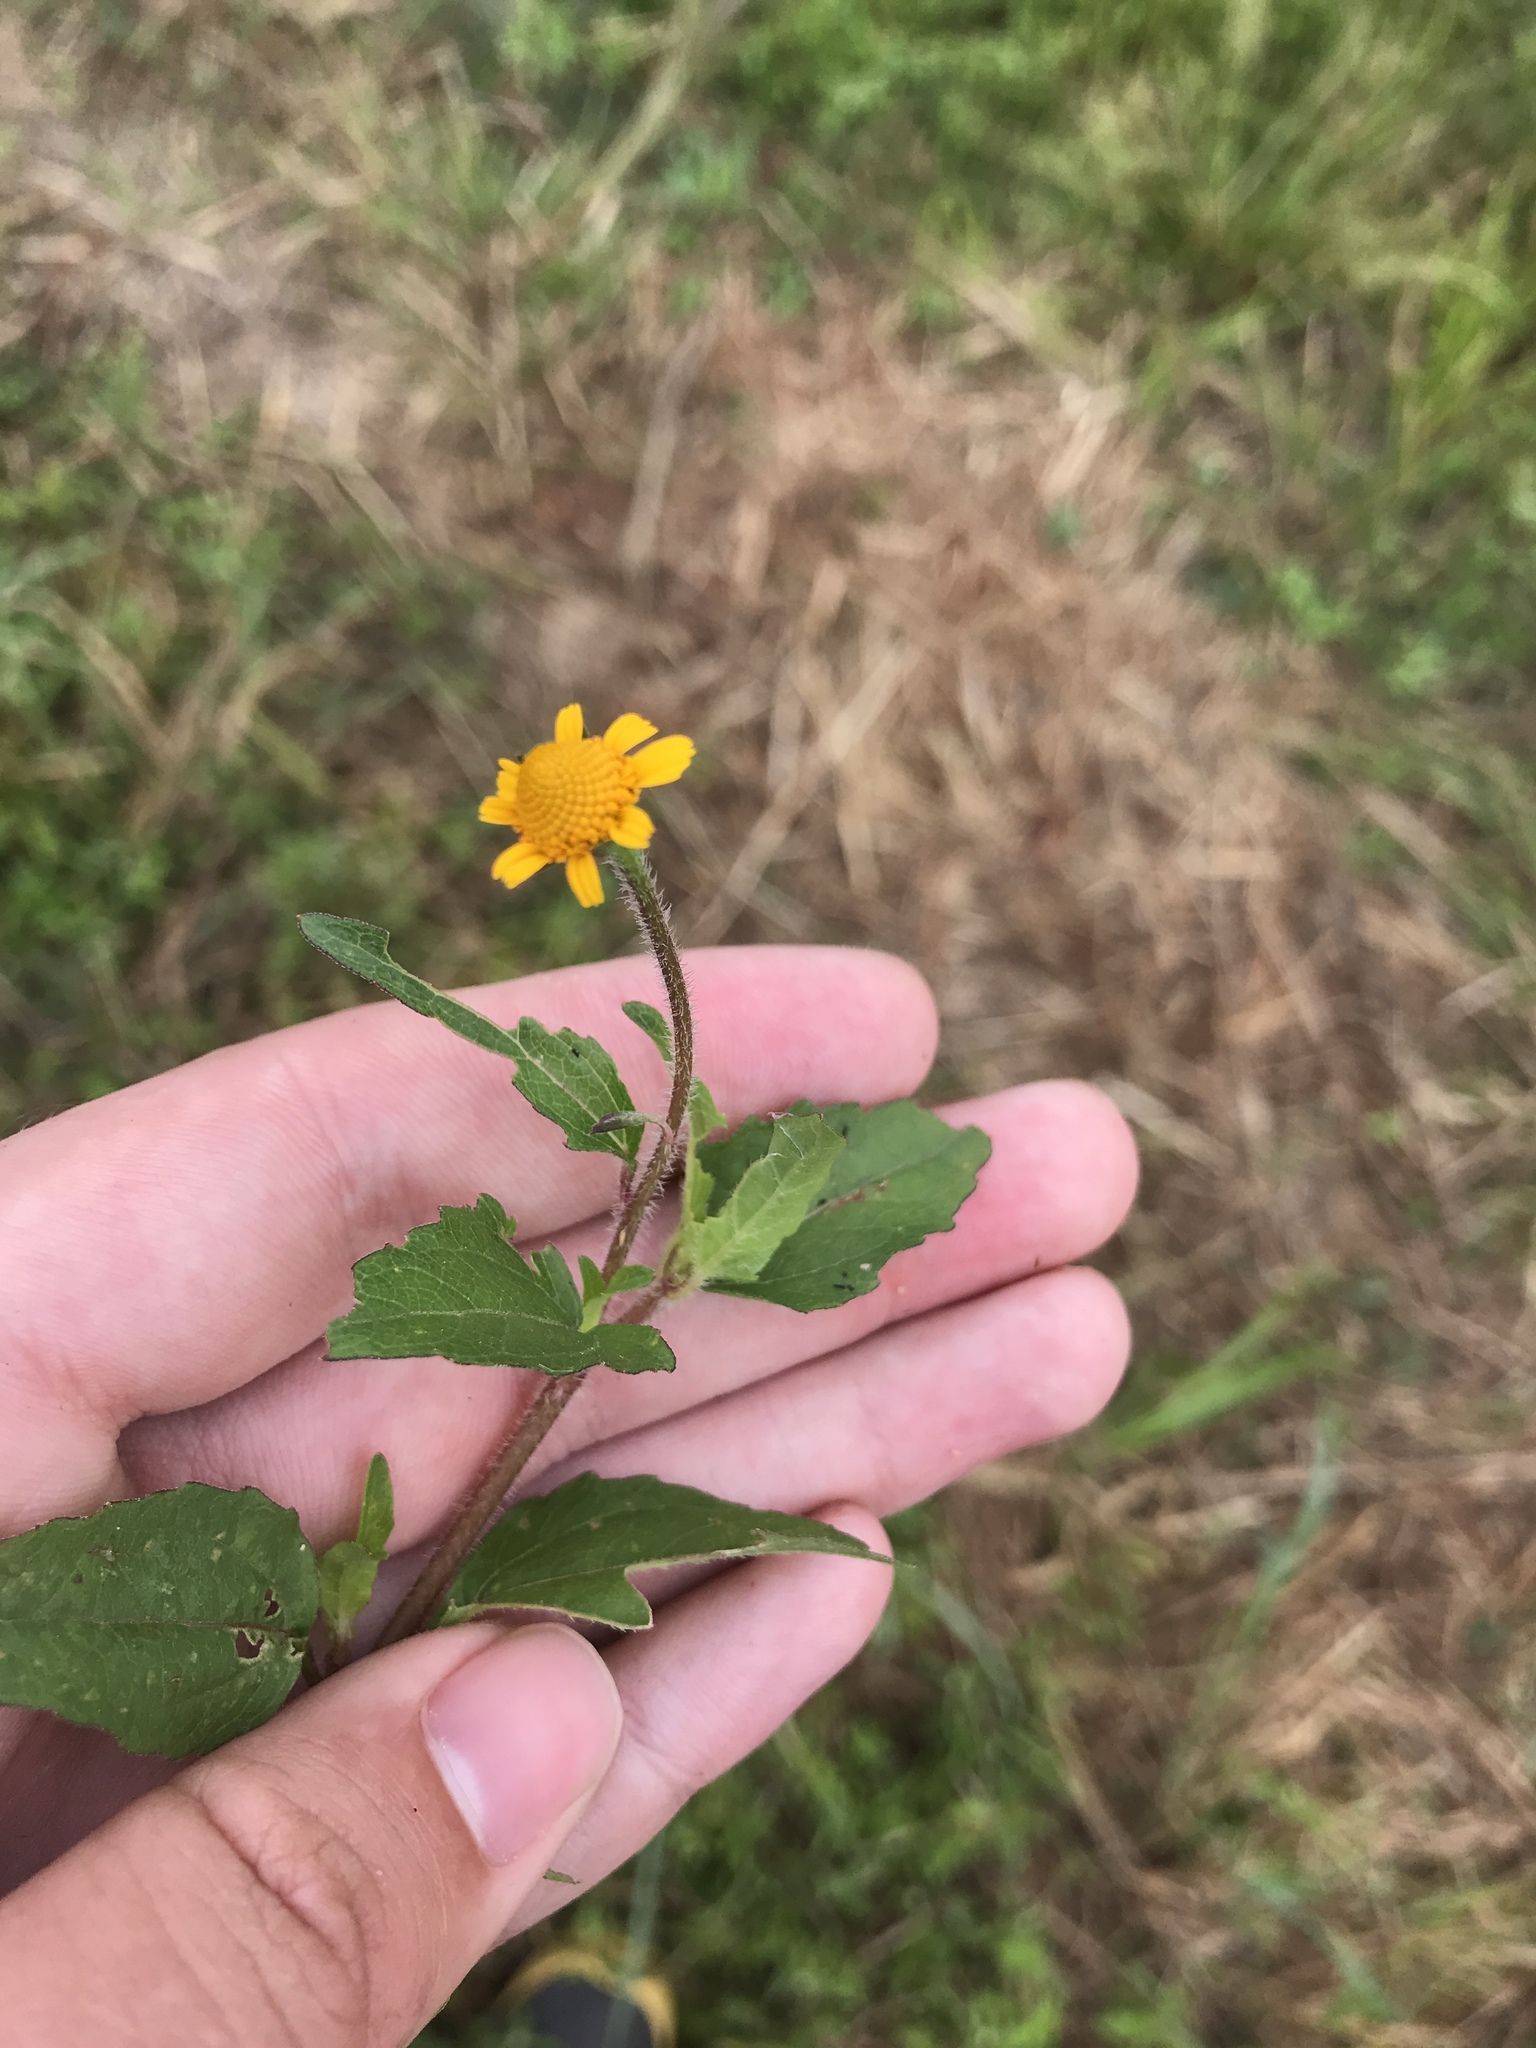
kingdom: Plantae
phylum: Tracheophyta
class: Magnoliopsida
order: Asterales
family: Asteraceae
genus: Acmella
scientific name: Acmella repens
